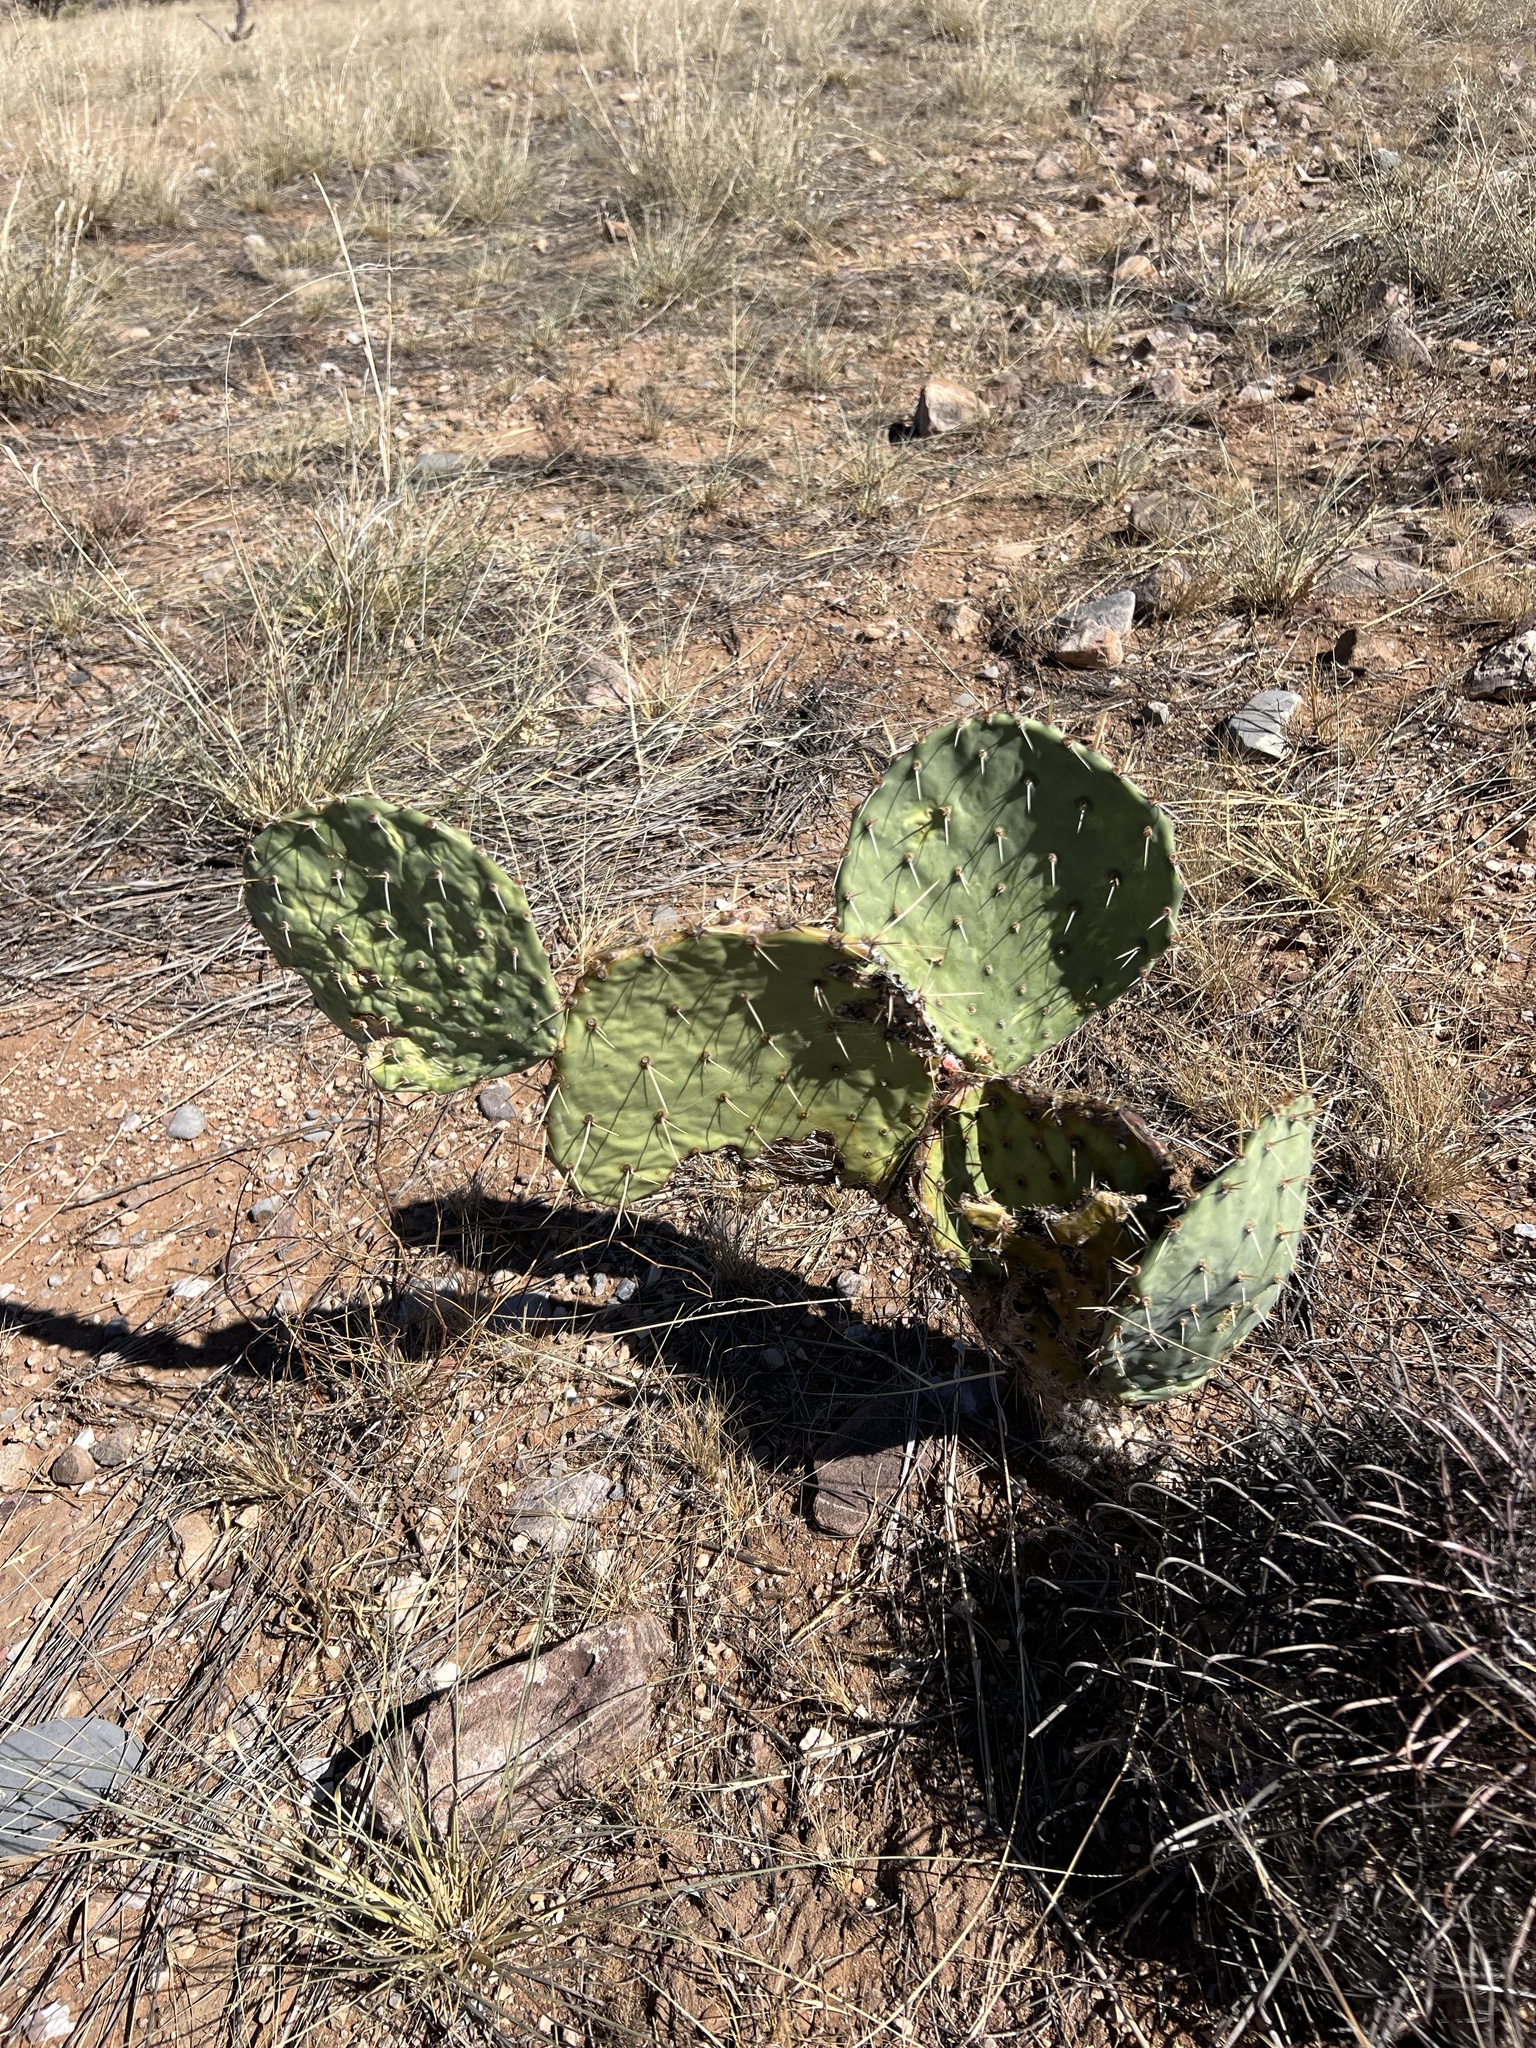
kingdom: Plantae
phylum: Tracheophyta
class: Magnoliopsida
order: Caryophyllales
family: Cactaceae
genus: Opuntia
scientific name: Opuntia engelmannii
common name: Cactus-apple
